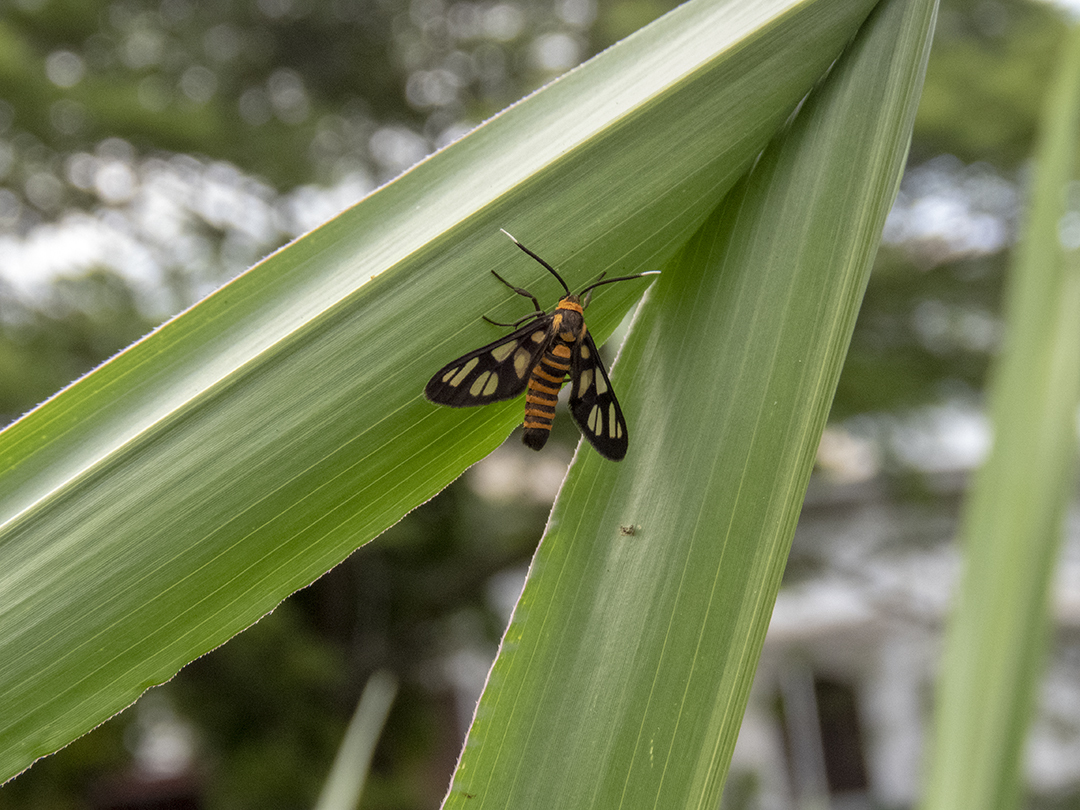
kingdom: Animalia
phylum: Arthropoda
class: Insecta
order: Lepidoptera
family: Erebidae
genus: Amata
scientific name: Amata huebneri
